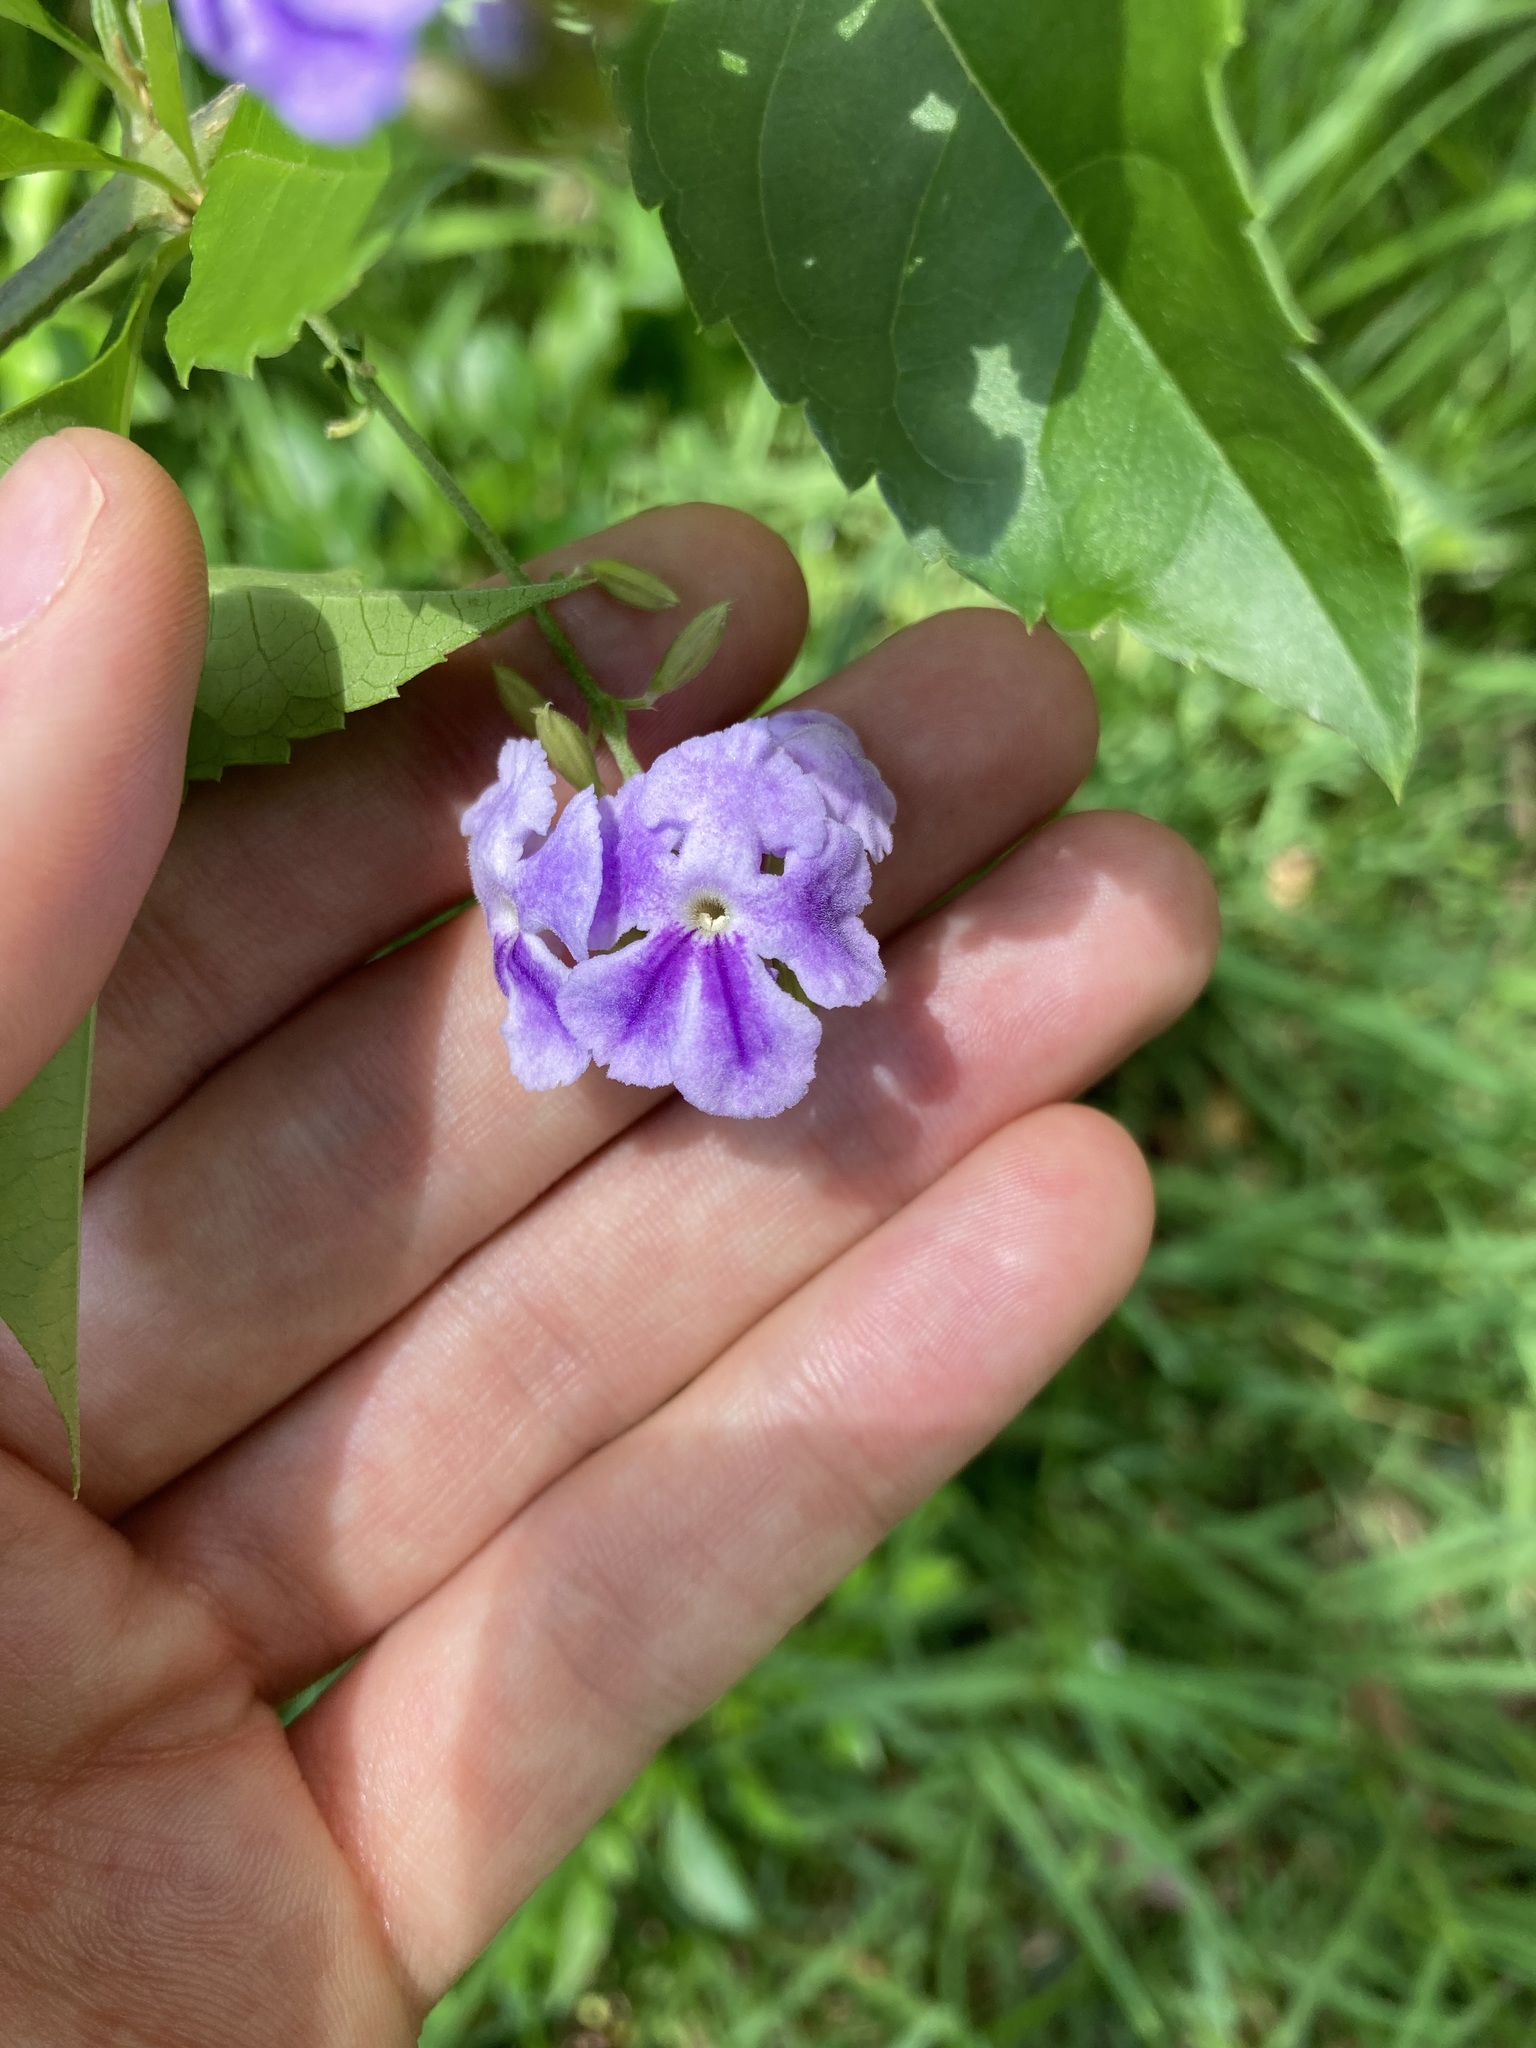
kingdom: Plantae
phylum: Tracheophyta
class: Magnoliopsida
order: Lamiales
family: Verbenaceae
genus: Duranta
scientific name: Duranta erecta
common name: Golden dewdrops
